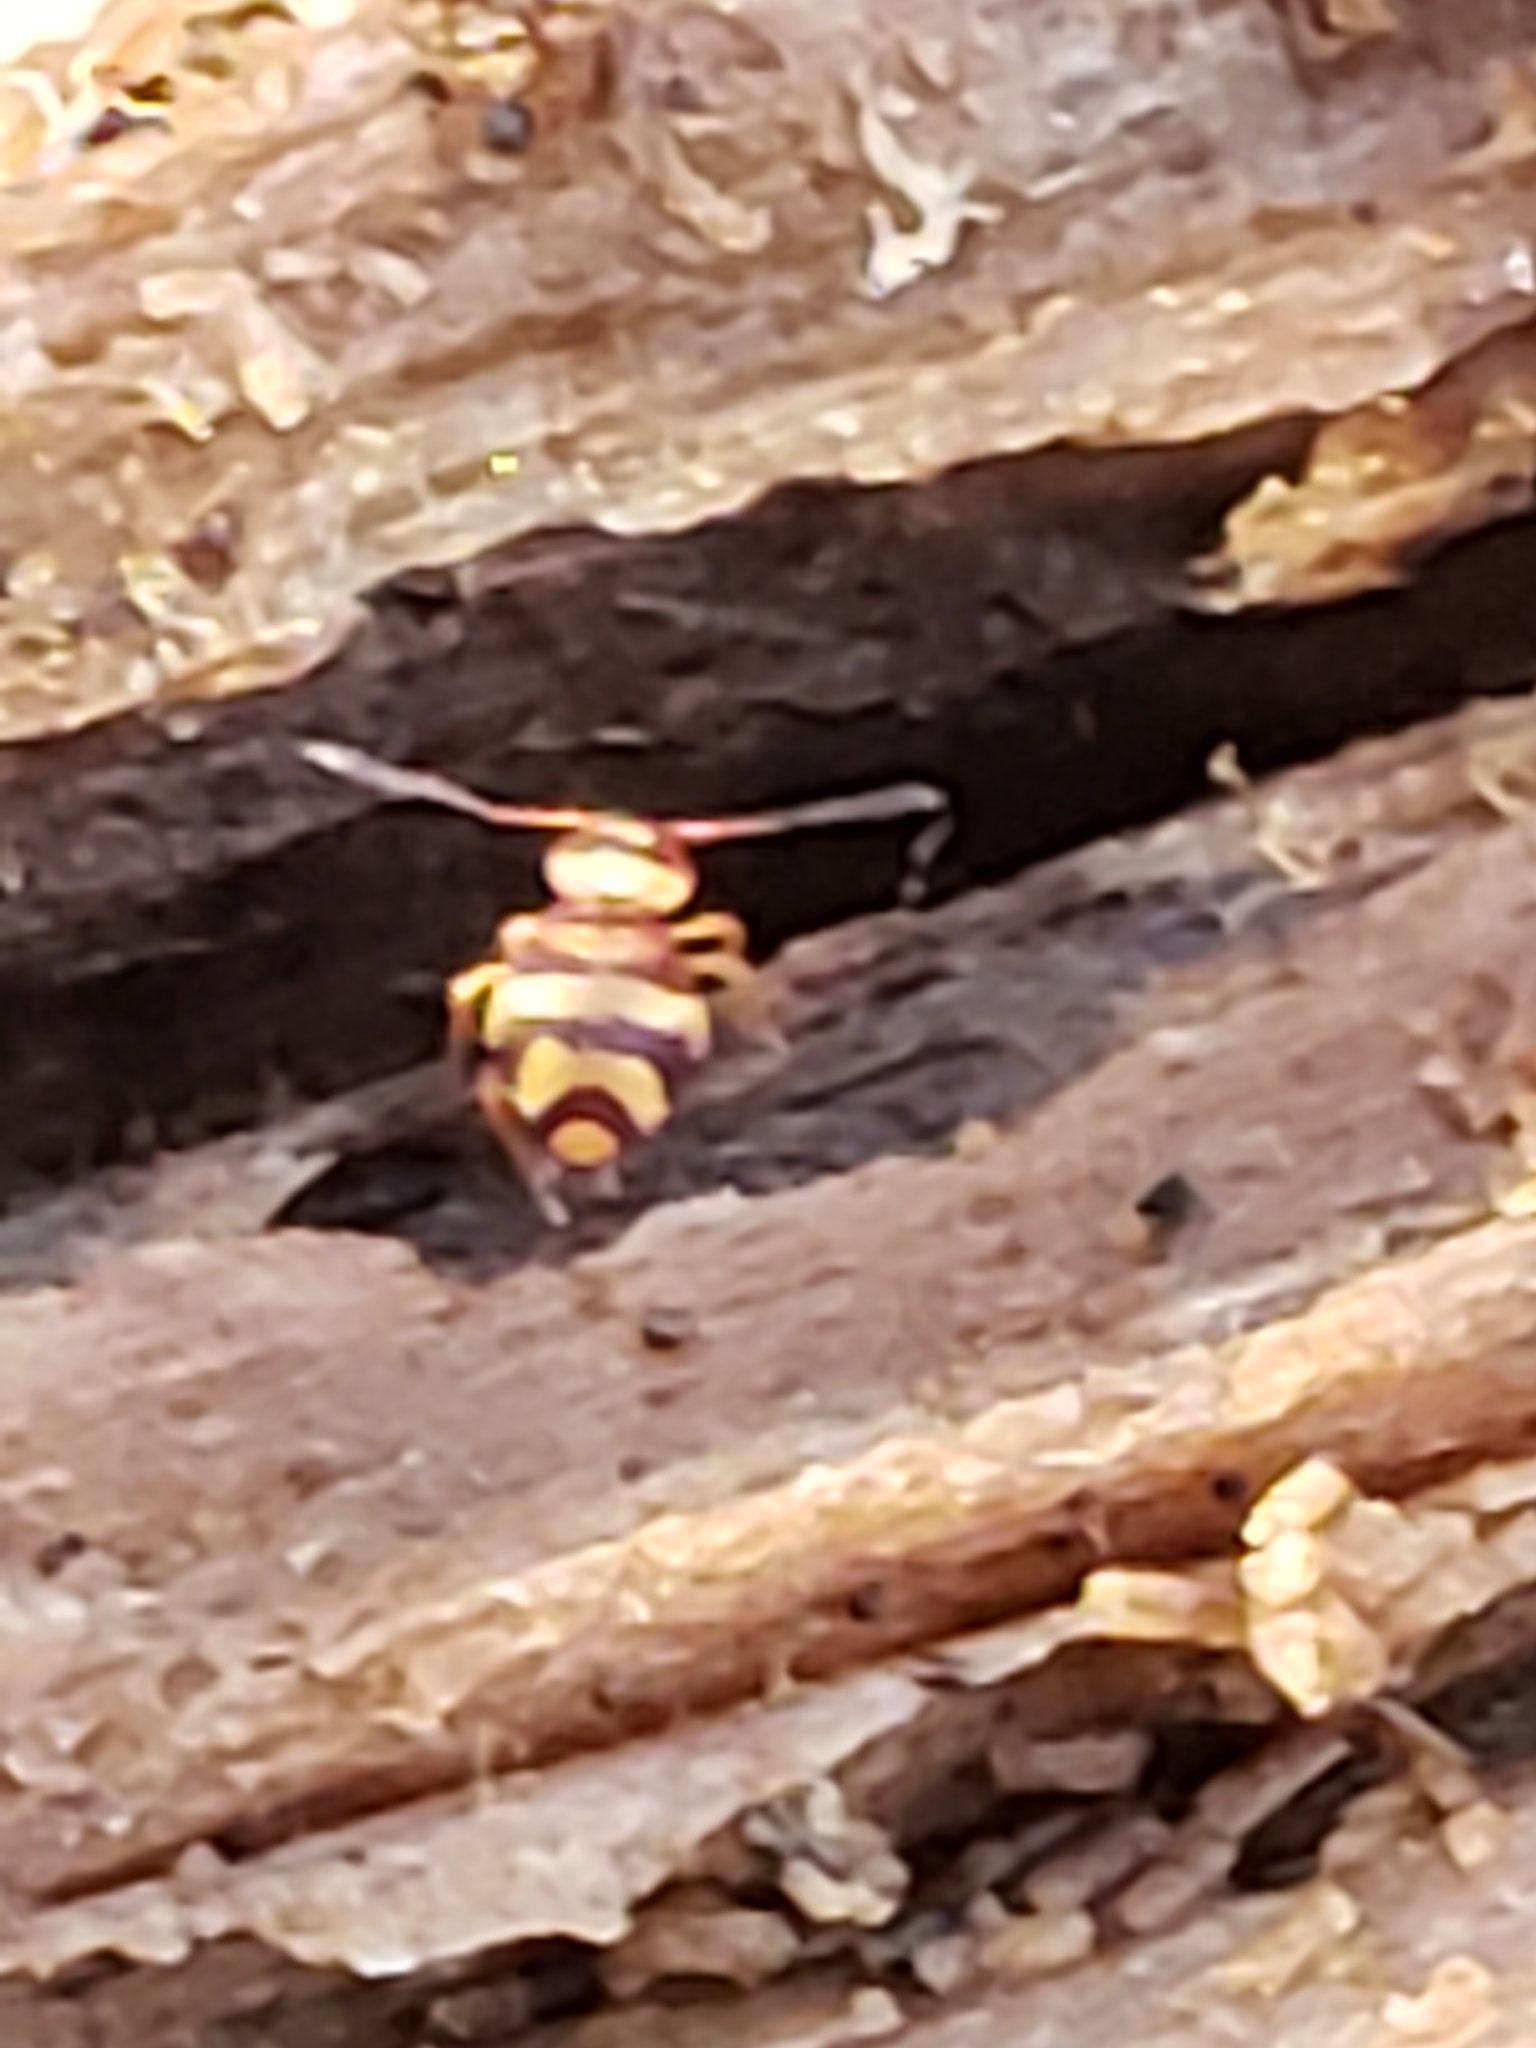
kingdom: Animalia
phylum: Arthropoda
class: Collembola
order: Symphypleona
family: Dicyrtomidae
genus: Bothriovulsus
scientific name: Bothriovulsus pineolae
